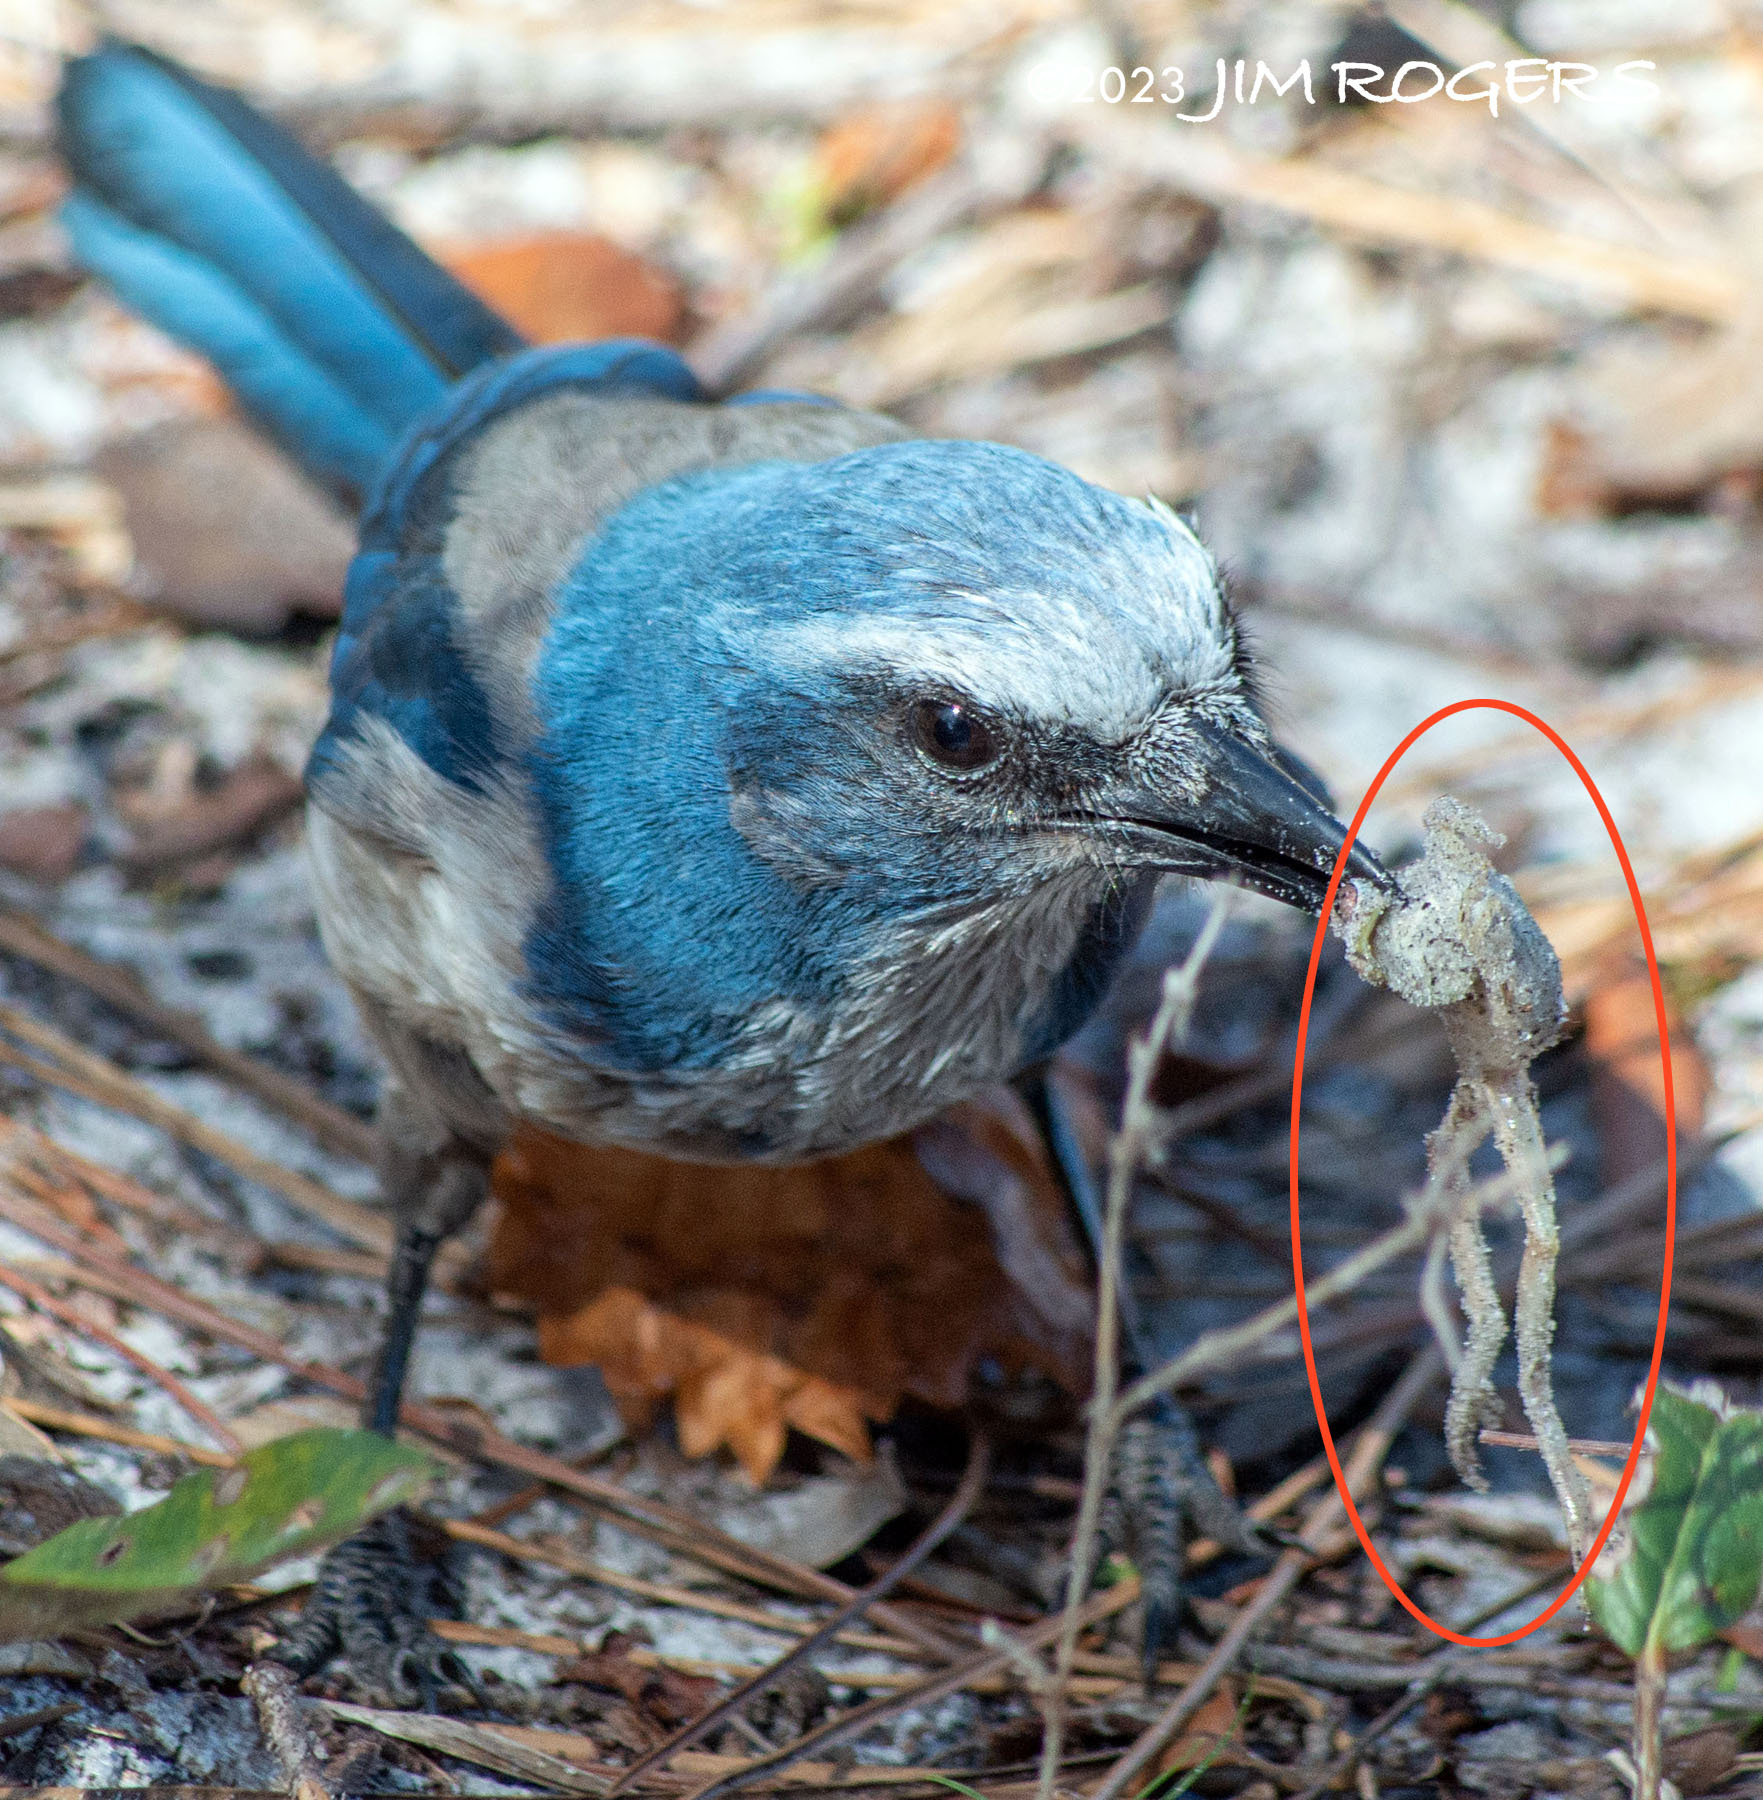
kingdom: Animalia
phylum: Chordata
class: Aves
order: Passeriformes
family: Corvidae
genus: Aphelocoma
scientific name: Aphelocoma coerulescens
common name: Florida scrub jay
